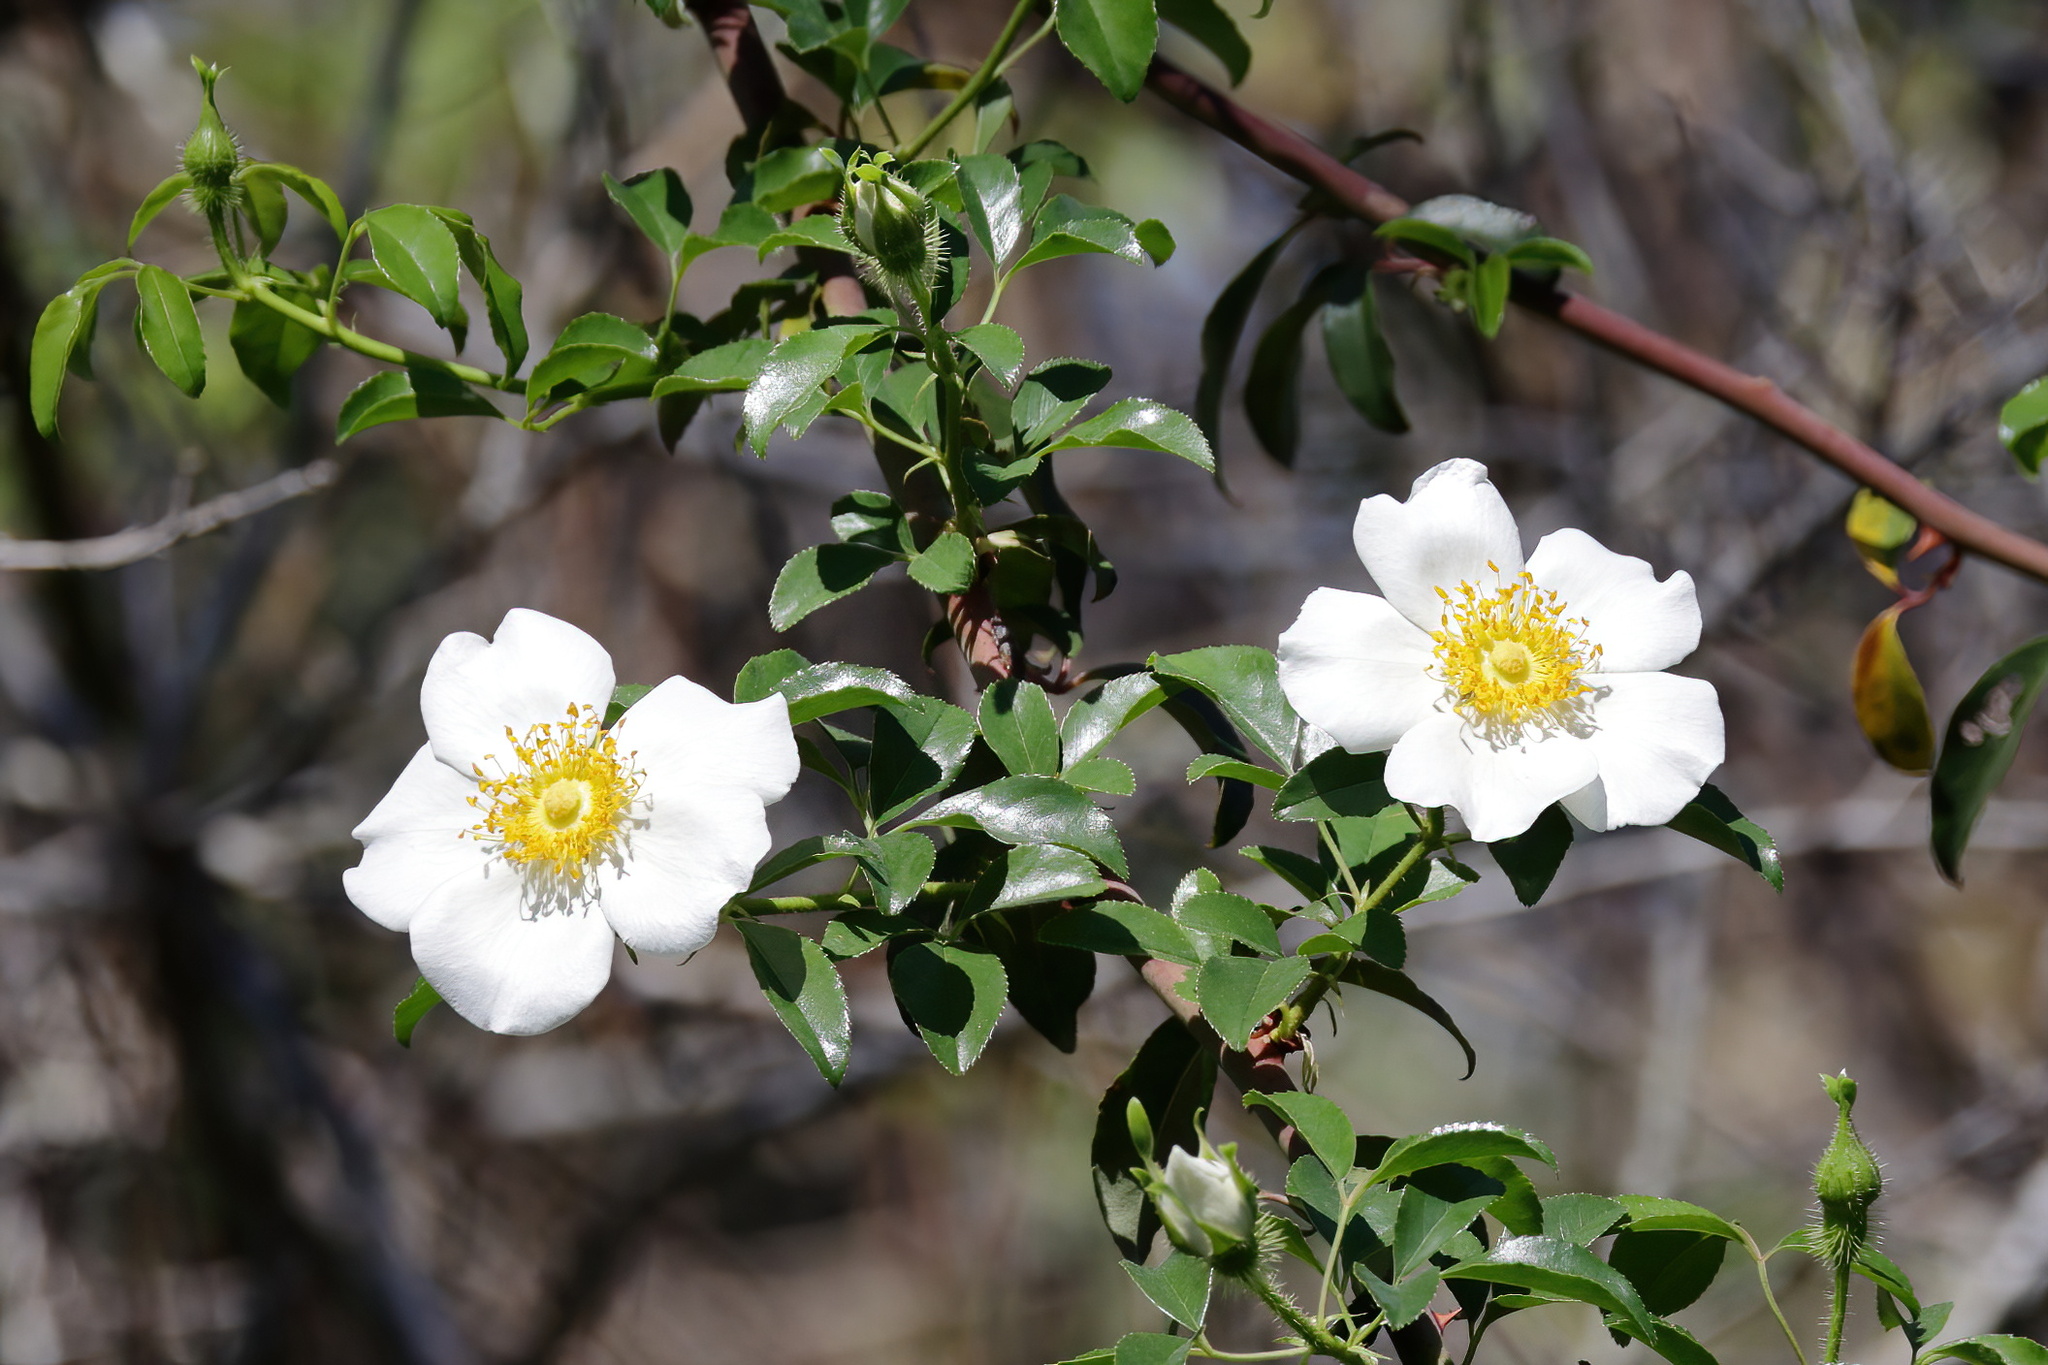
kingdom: Plantae
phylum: Tracheophyta
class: Magnoliopsida
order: Rosales
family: Rosaceae
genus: Rosa
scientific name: Rosa laevigata
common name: Cherokee rose
